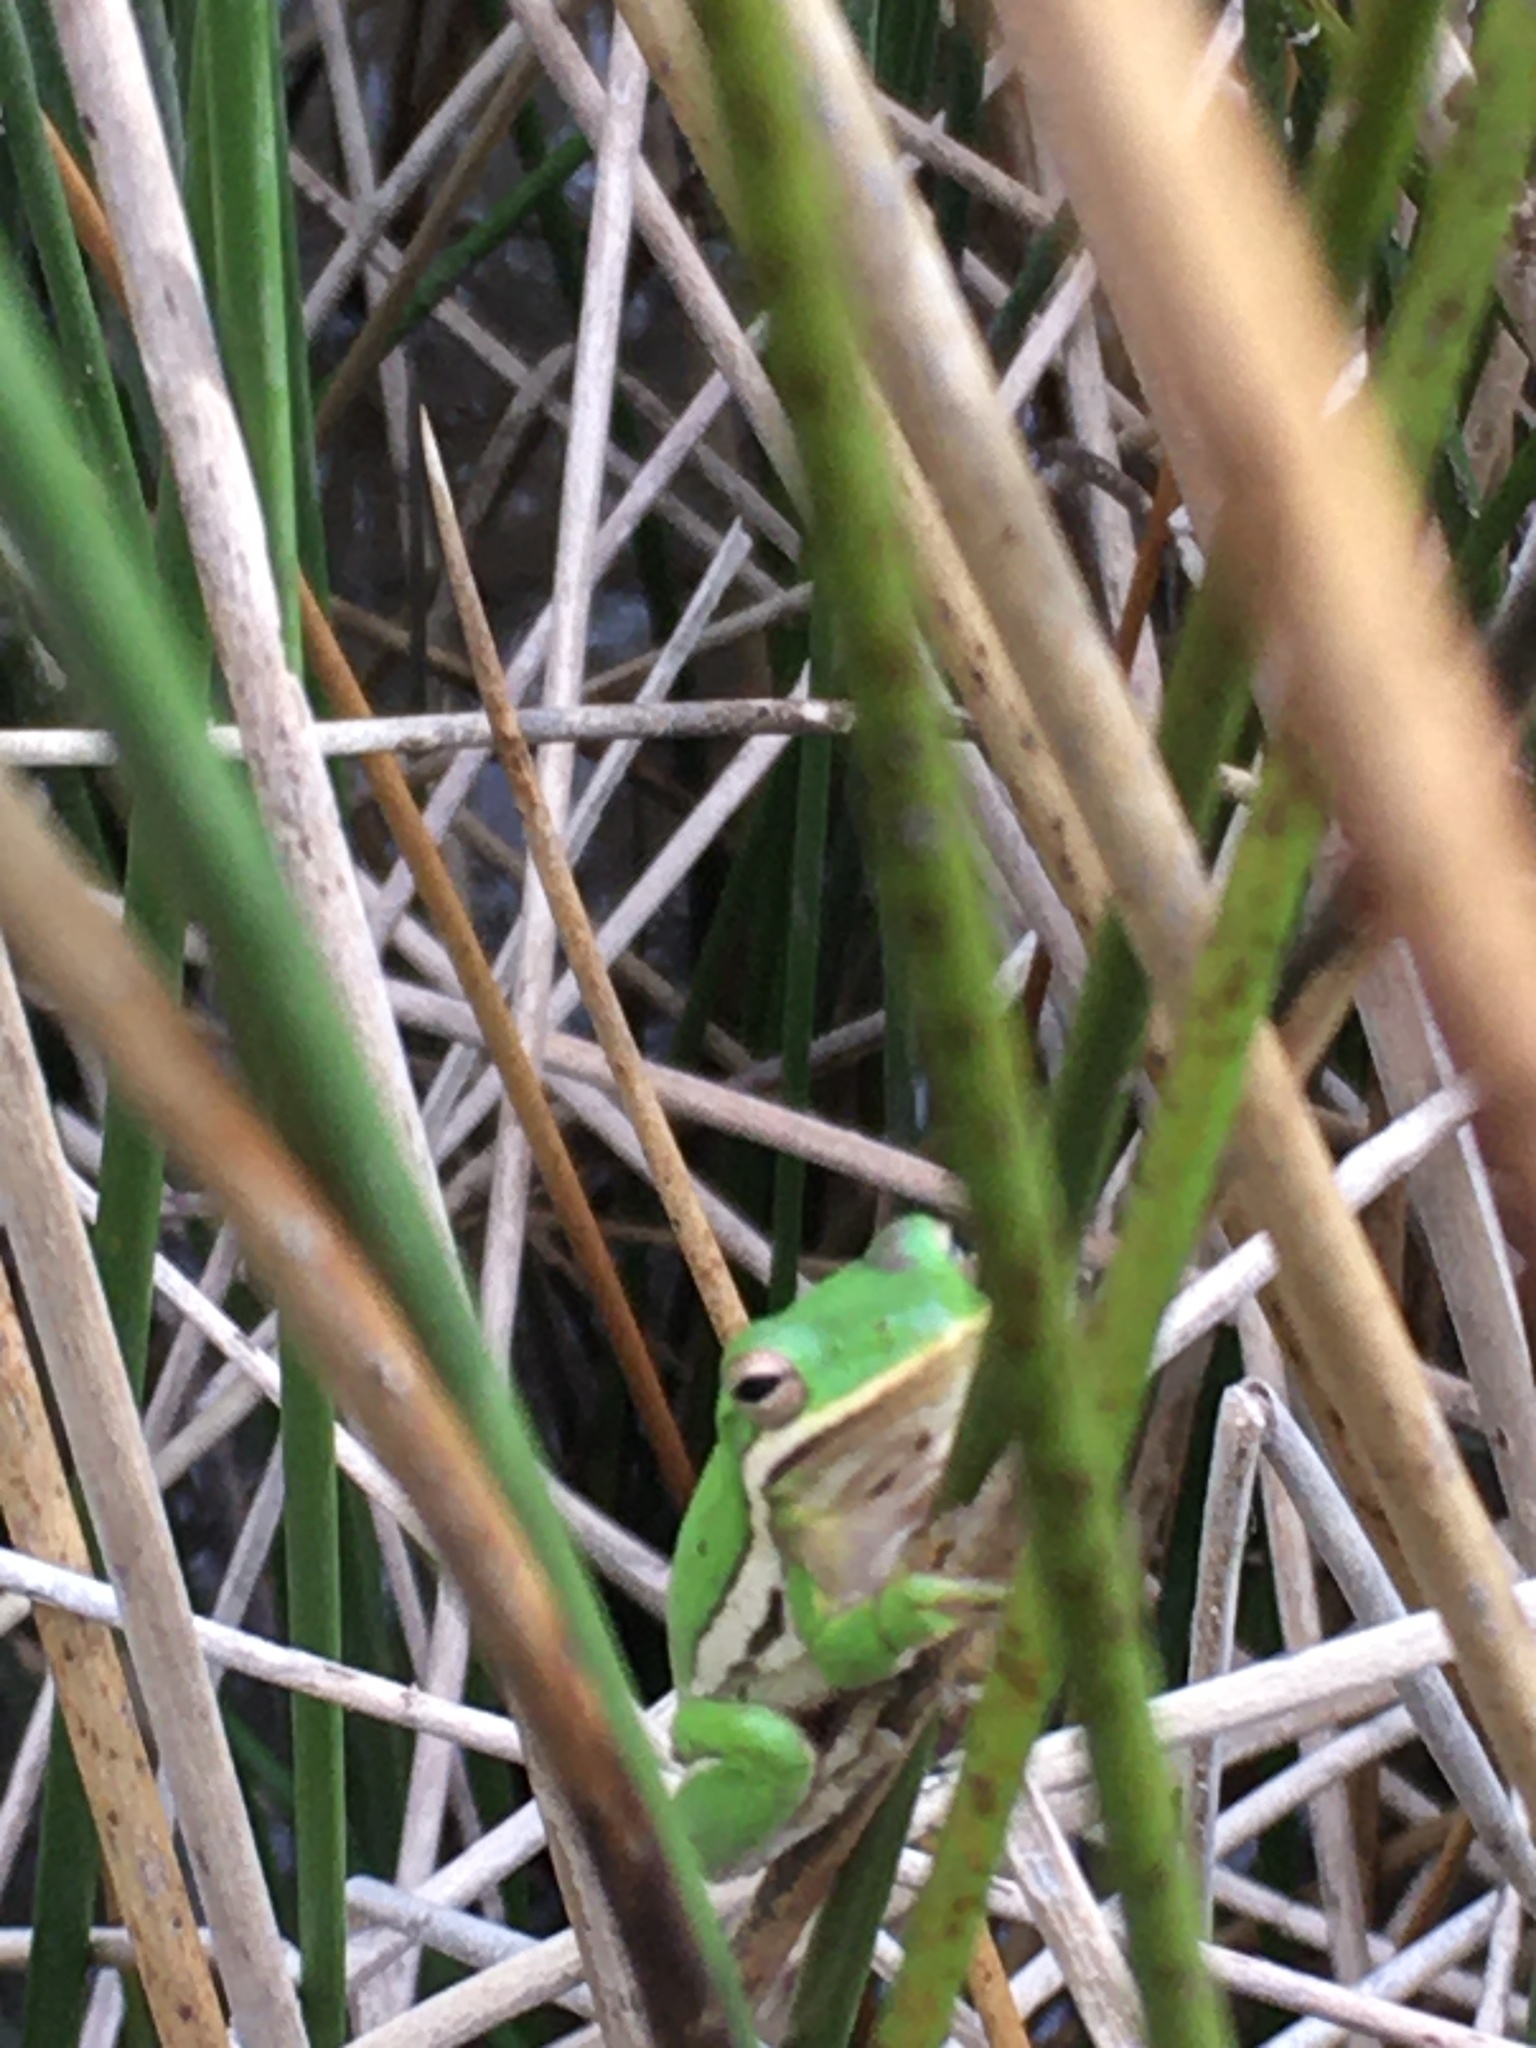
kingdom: Animalia
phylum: Chordata
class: Amphibia
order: Anura
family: Hylidae
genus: Dryophytes
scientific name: Dryophytes cinereus
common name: Green treefrog
